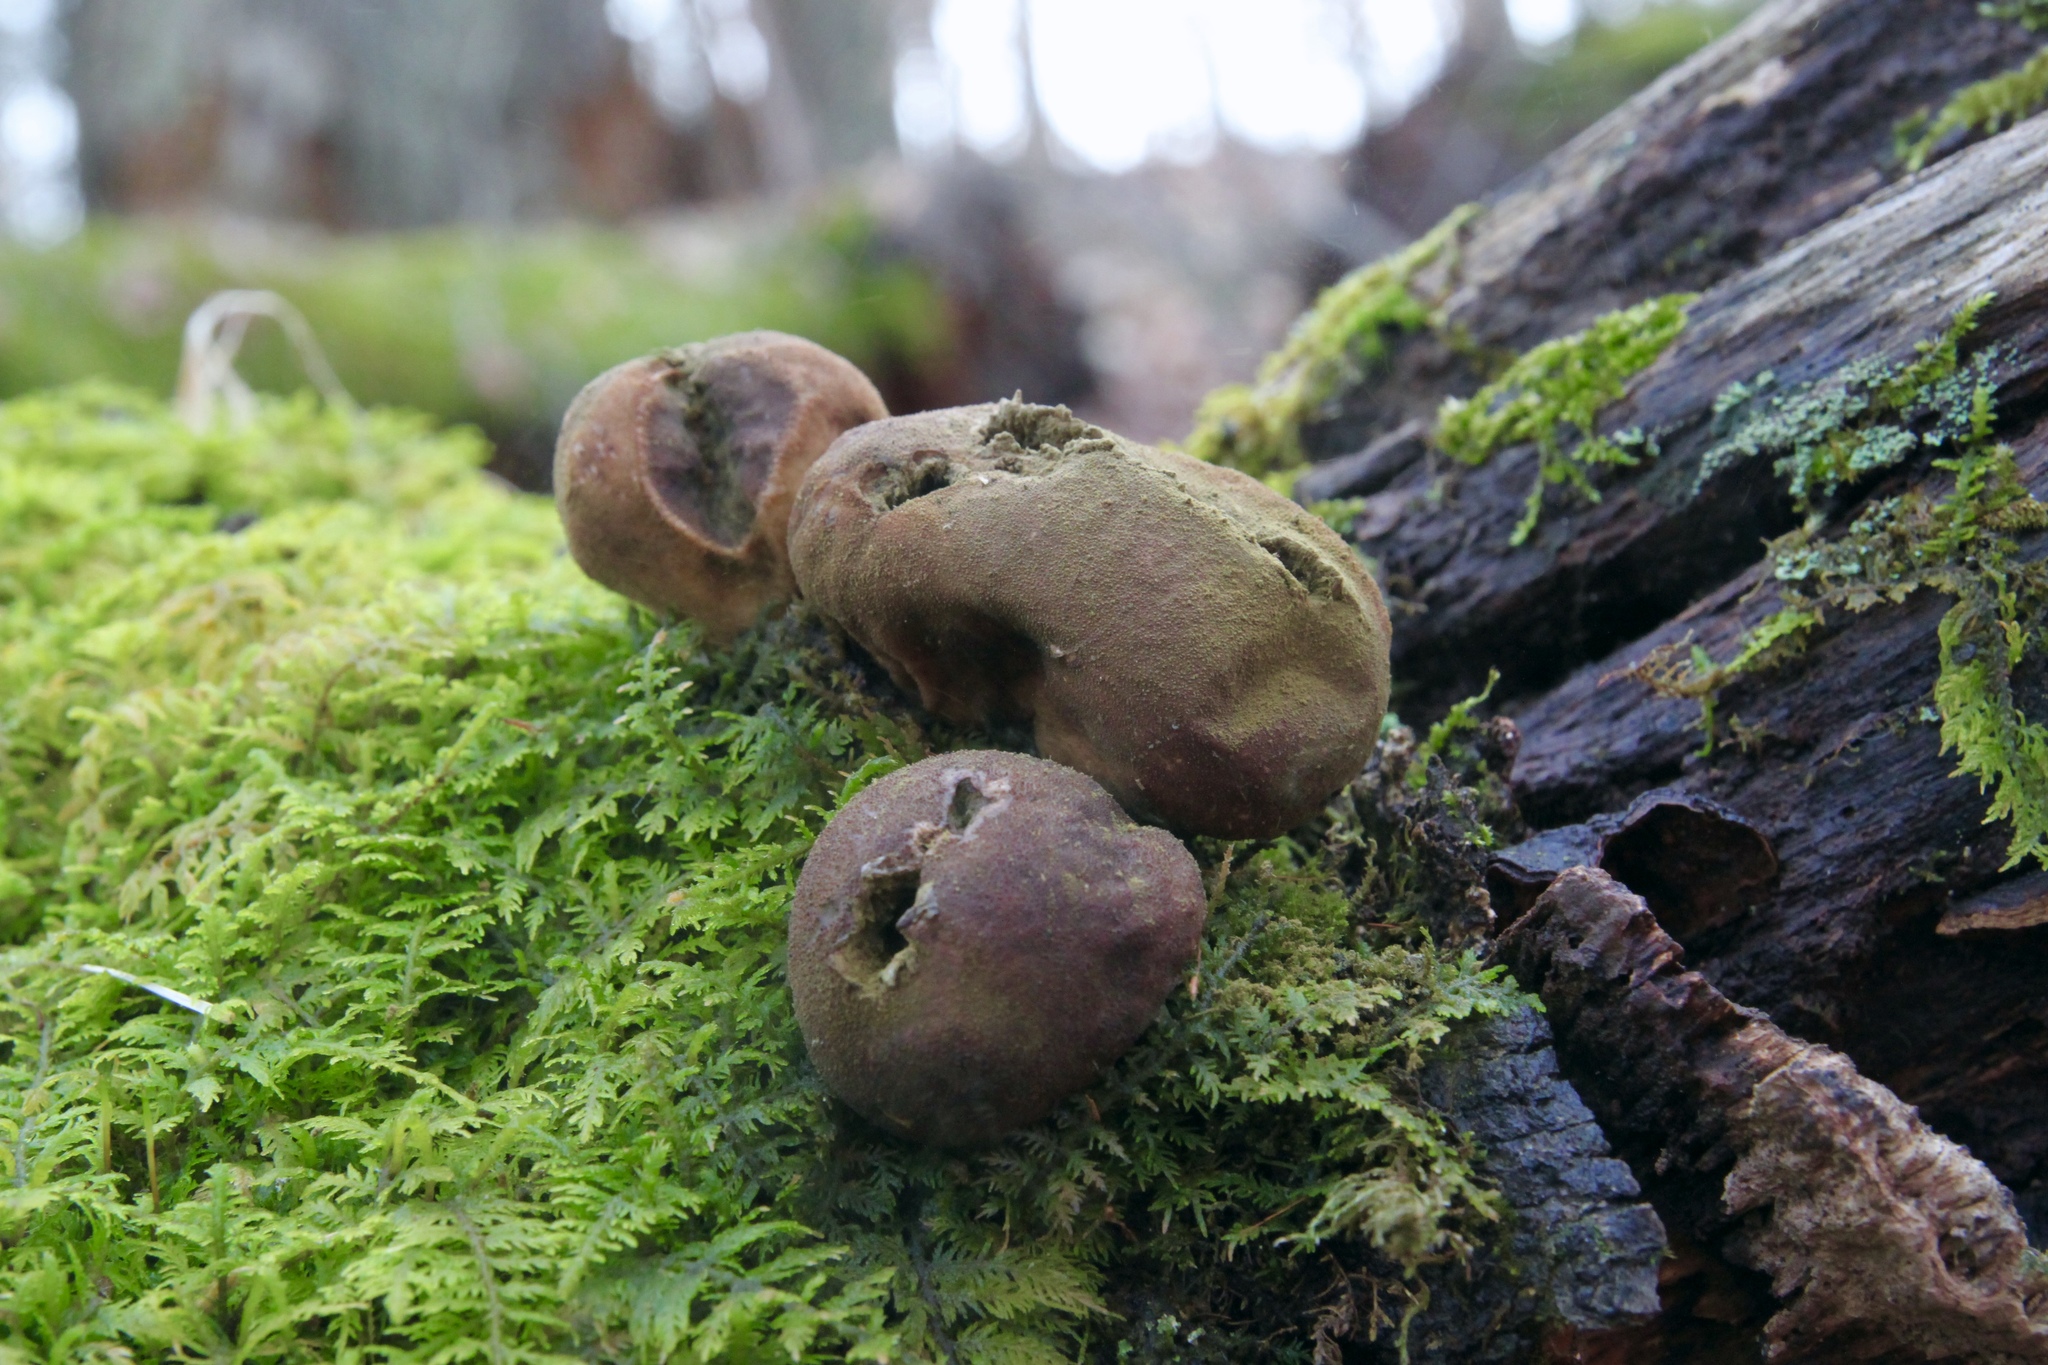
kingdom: Fungi
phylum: Basidiomycota
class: Agaricomycetes
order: Agaricales
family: Lycoperdaceae
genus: Apioperdon
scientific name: Apioperdon pyriforme
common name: Pear-shaped puffball
